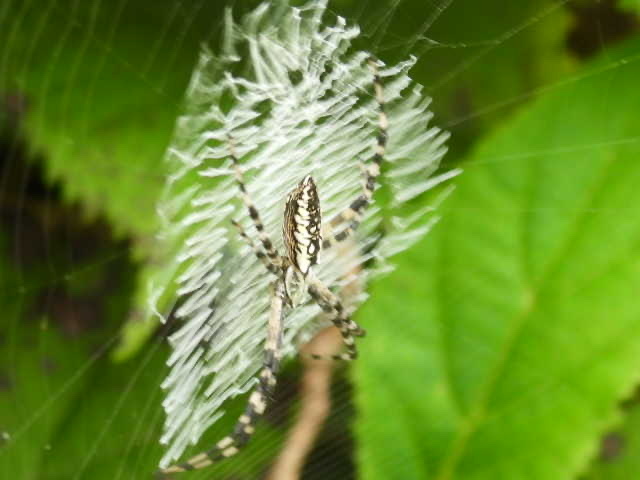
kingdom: Animalia
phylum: Arthropoda
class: Arachnida
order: Araneae
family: Araneidae
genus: Argiope
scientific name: Argiope aurantia
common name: Orb weavers
